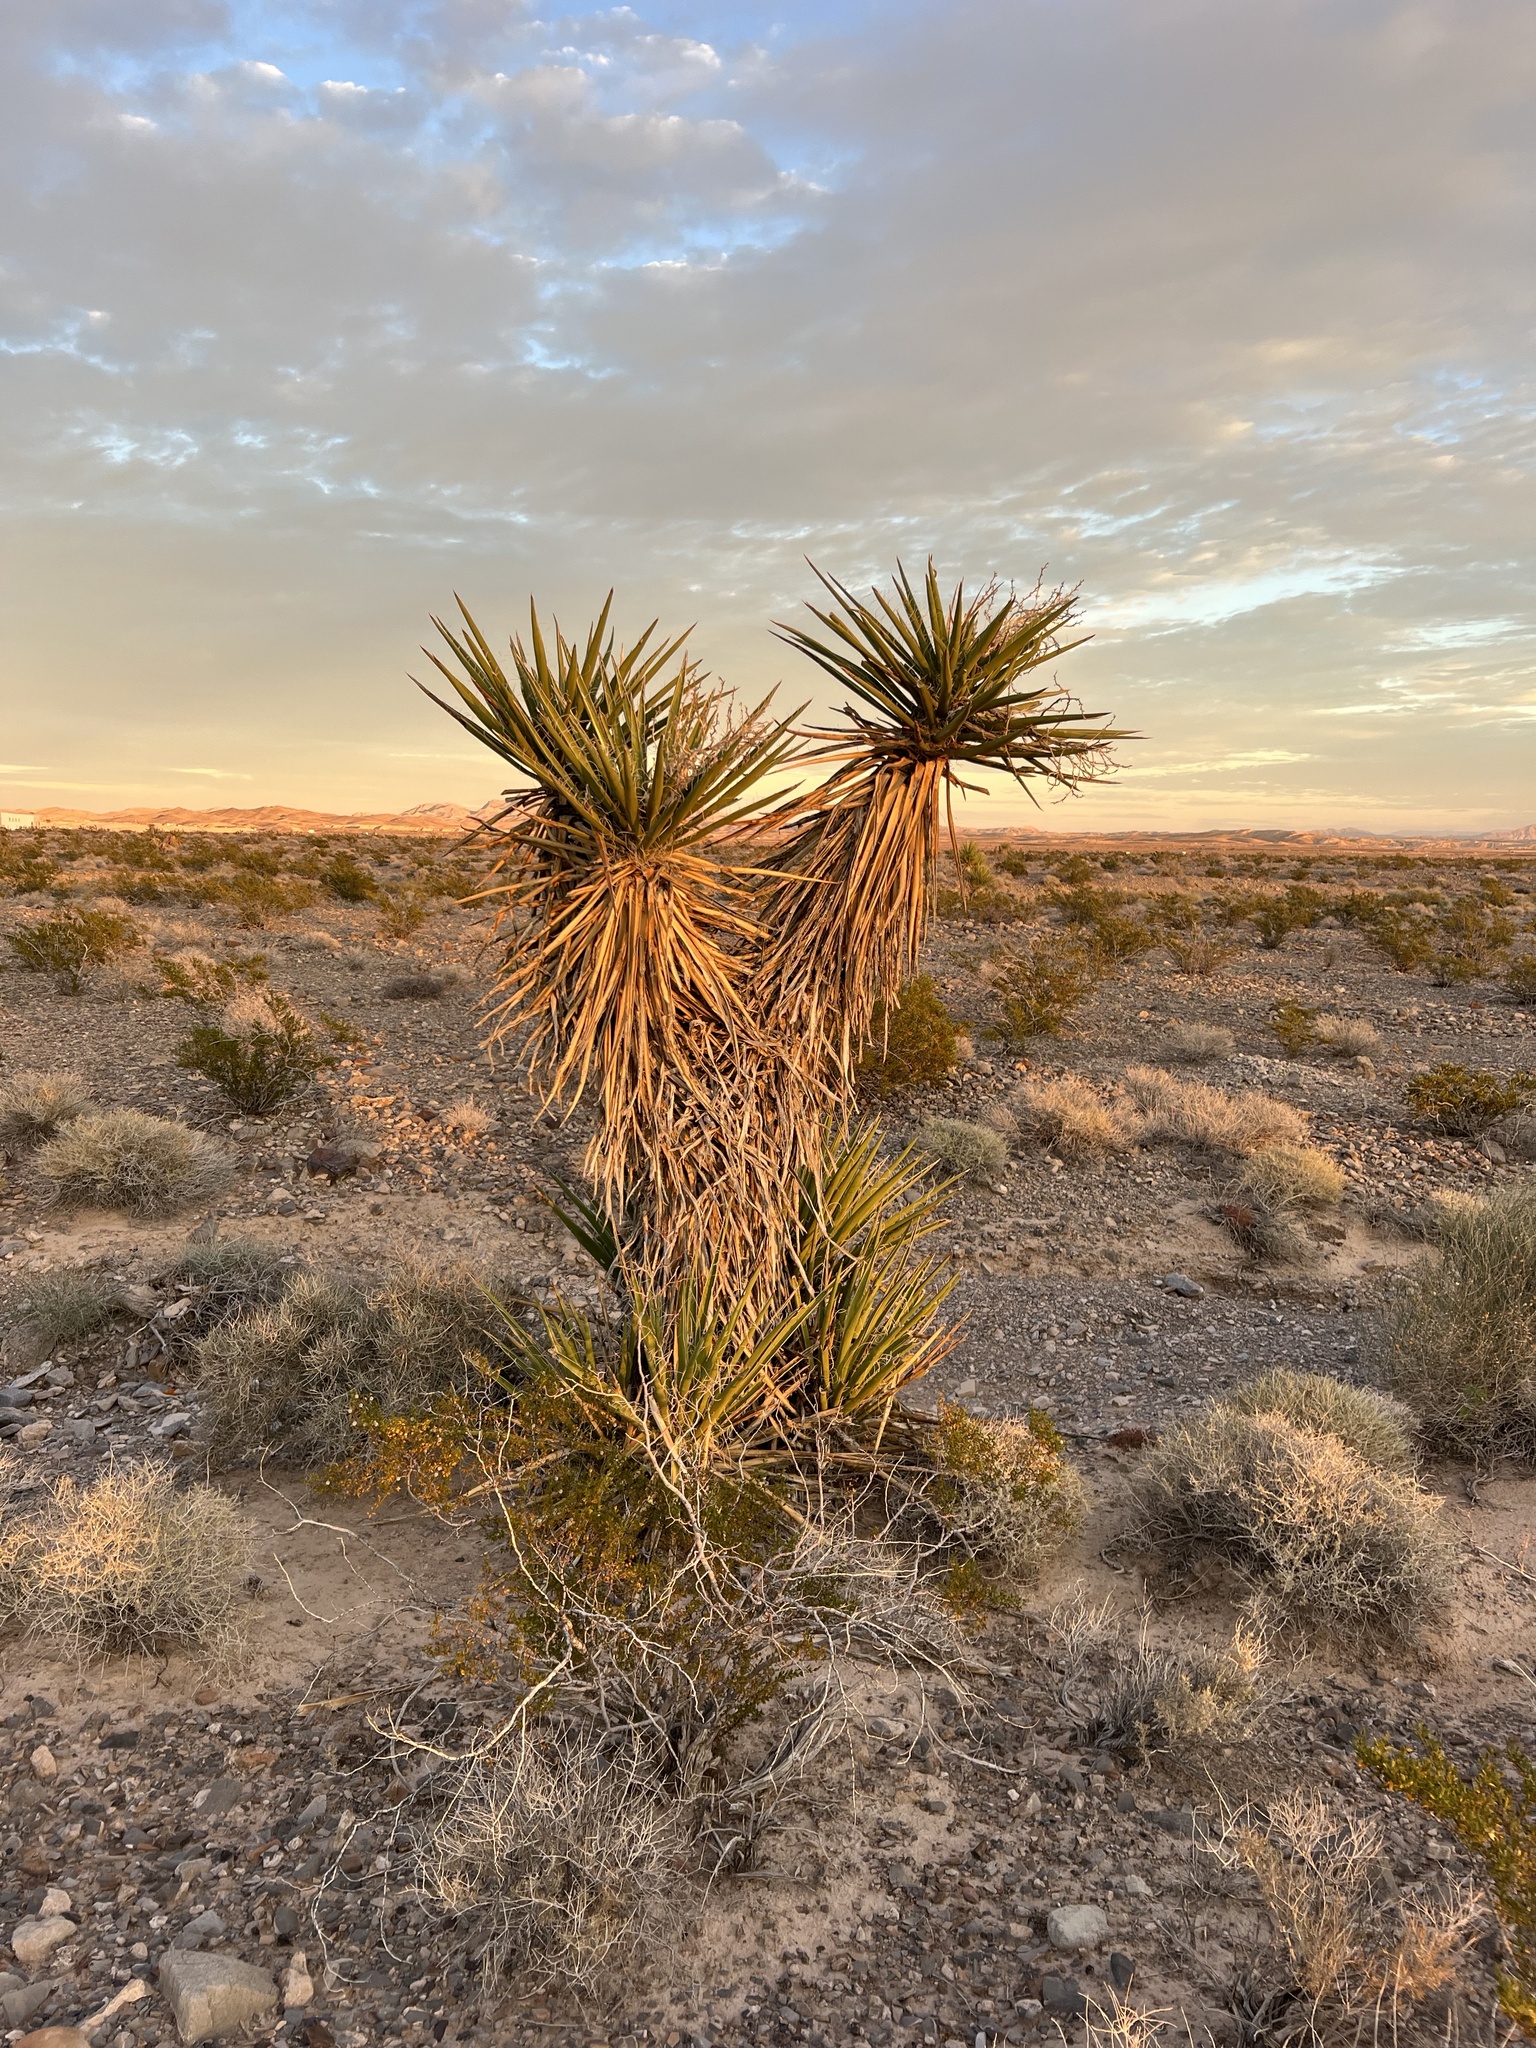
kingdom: Plantae
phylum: Tracheophyta
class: Liliopsida
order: Asparagales
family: Asparagaceae
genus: Yucca
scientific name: Yucca schidigera
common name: Mojave yucca
